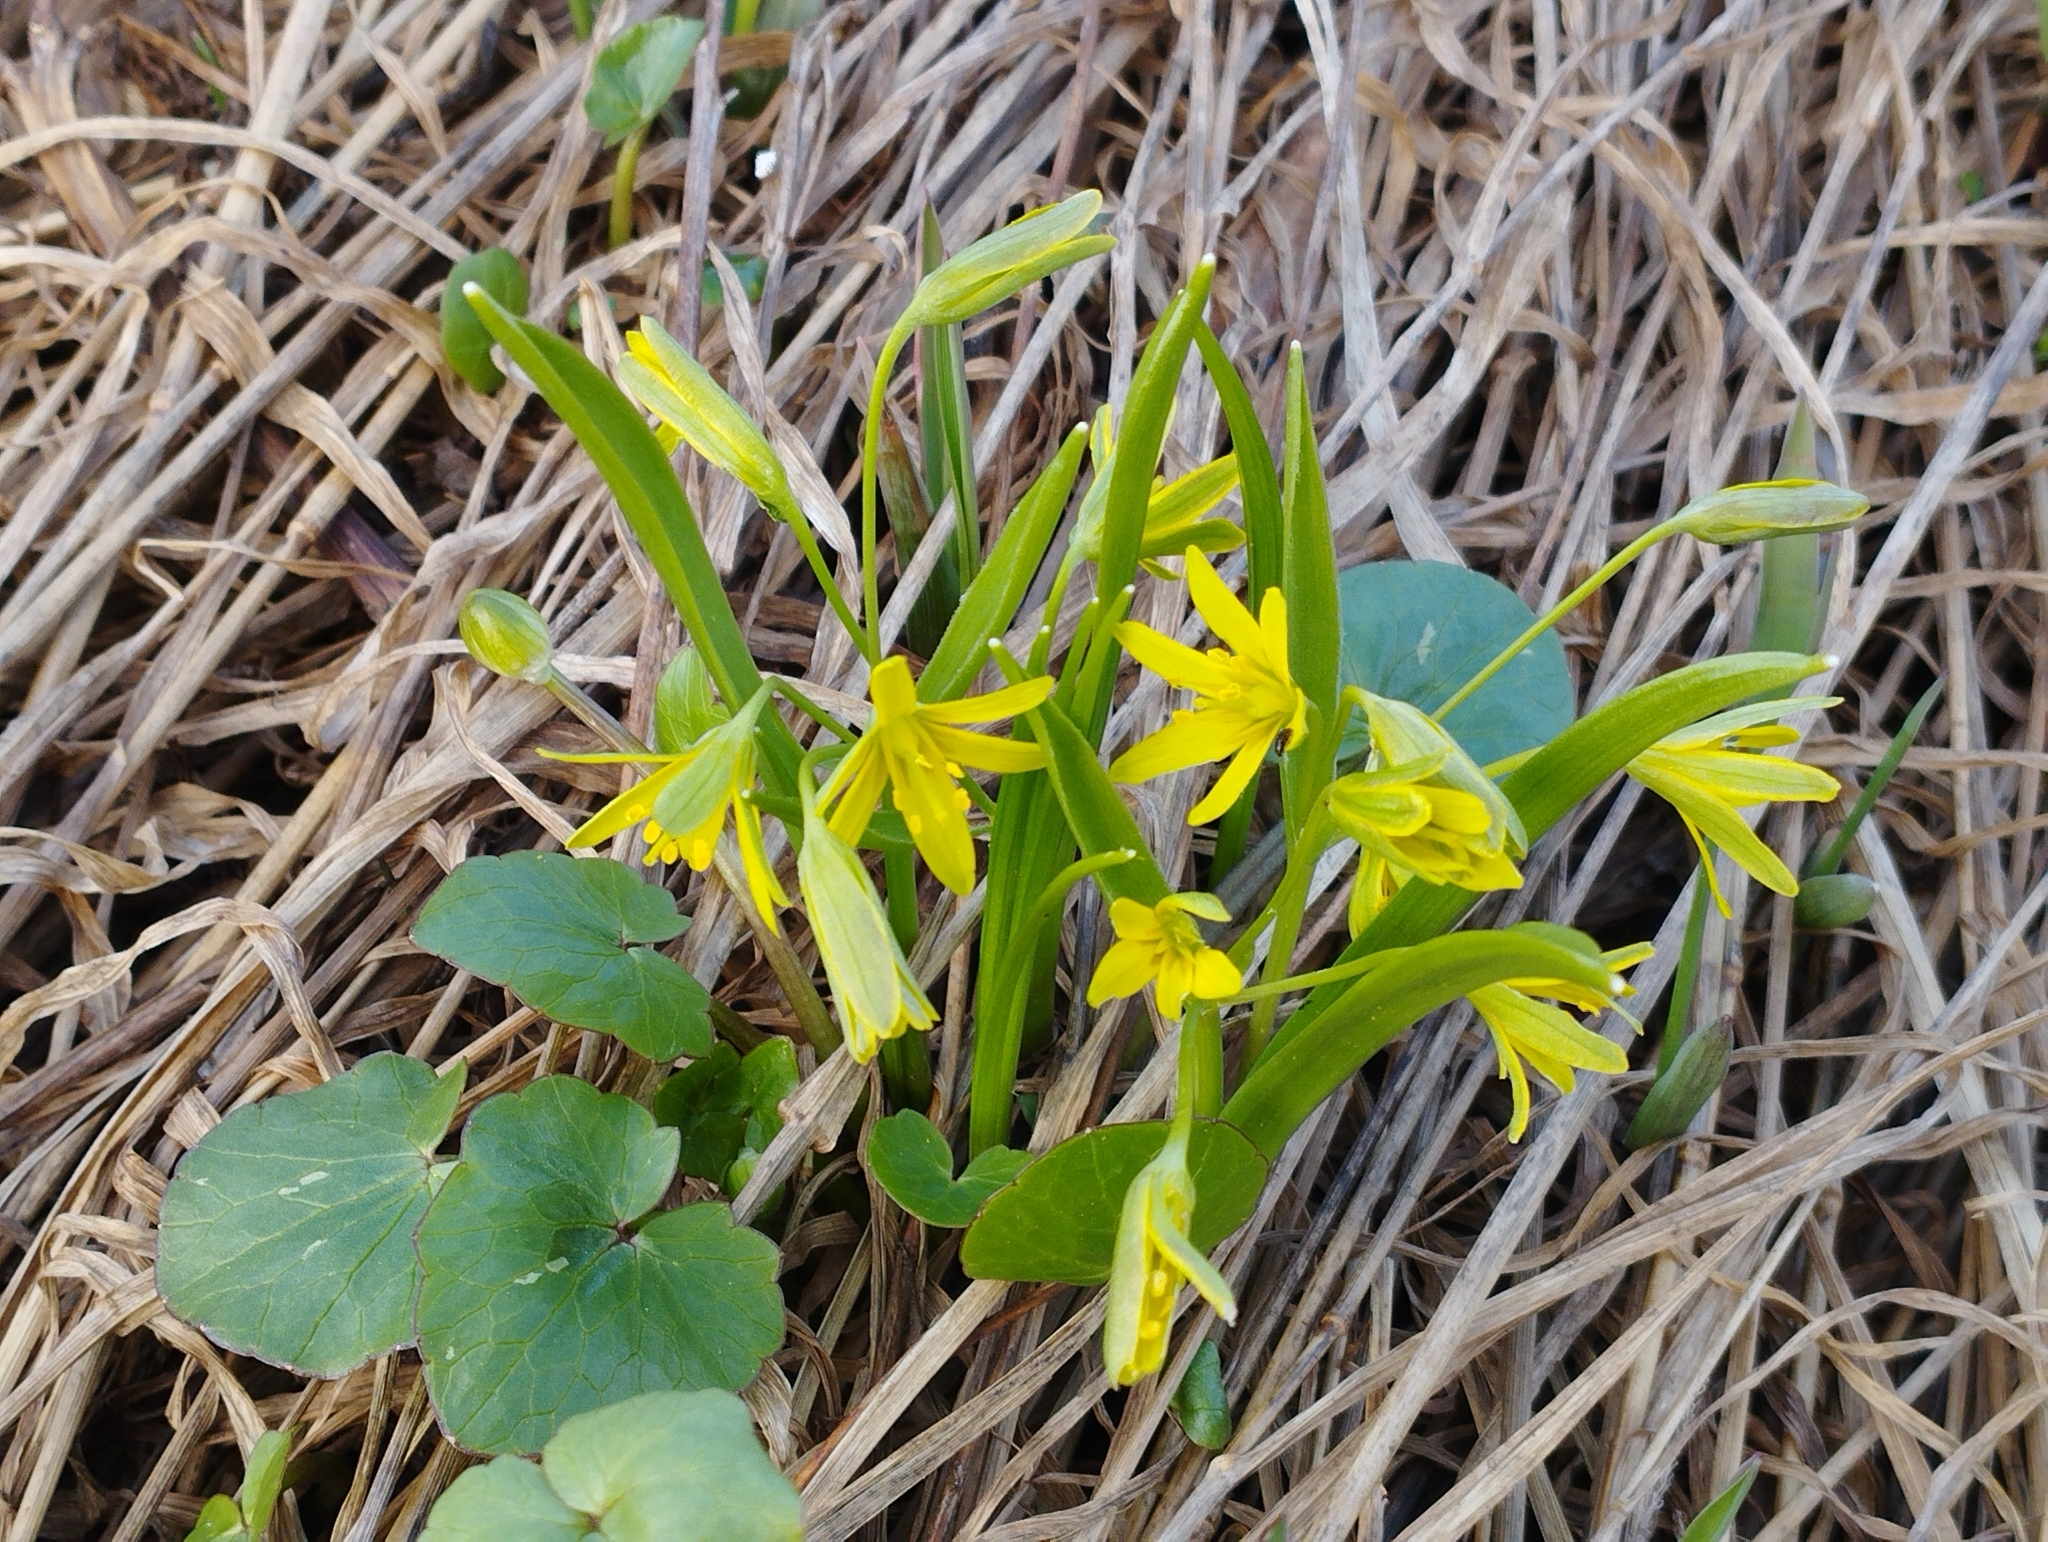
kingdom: Plantae
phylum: Tracheophyta
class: Liliopsida
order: Liliales
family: Liliaceae
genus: Gagea
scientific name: Gagea lutea
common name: Yellow star-of-bethlehem
